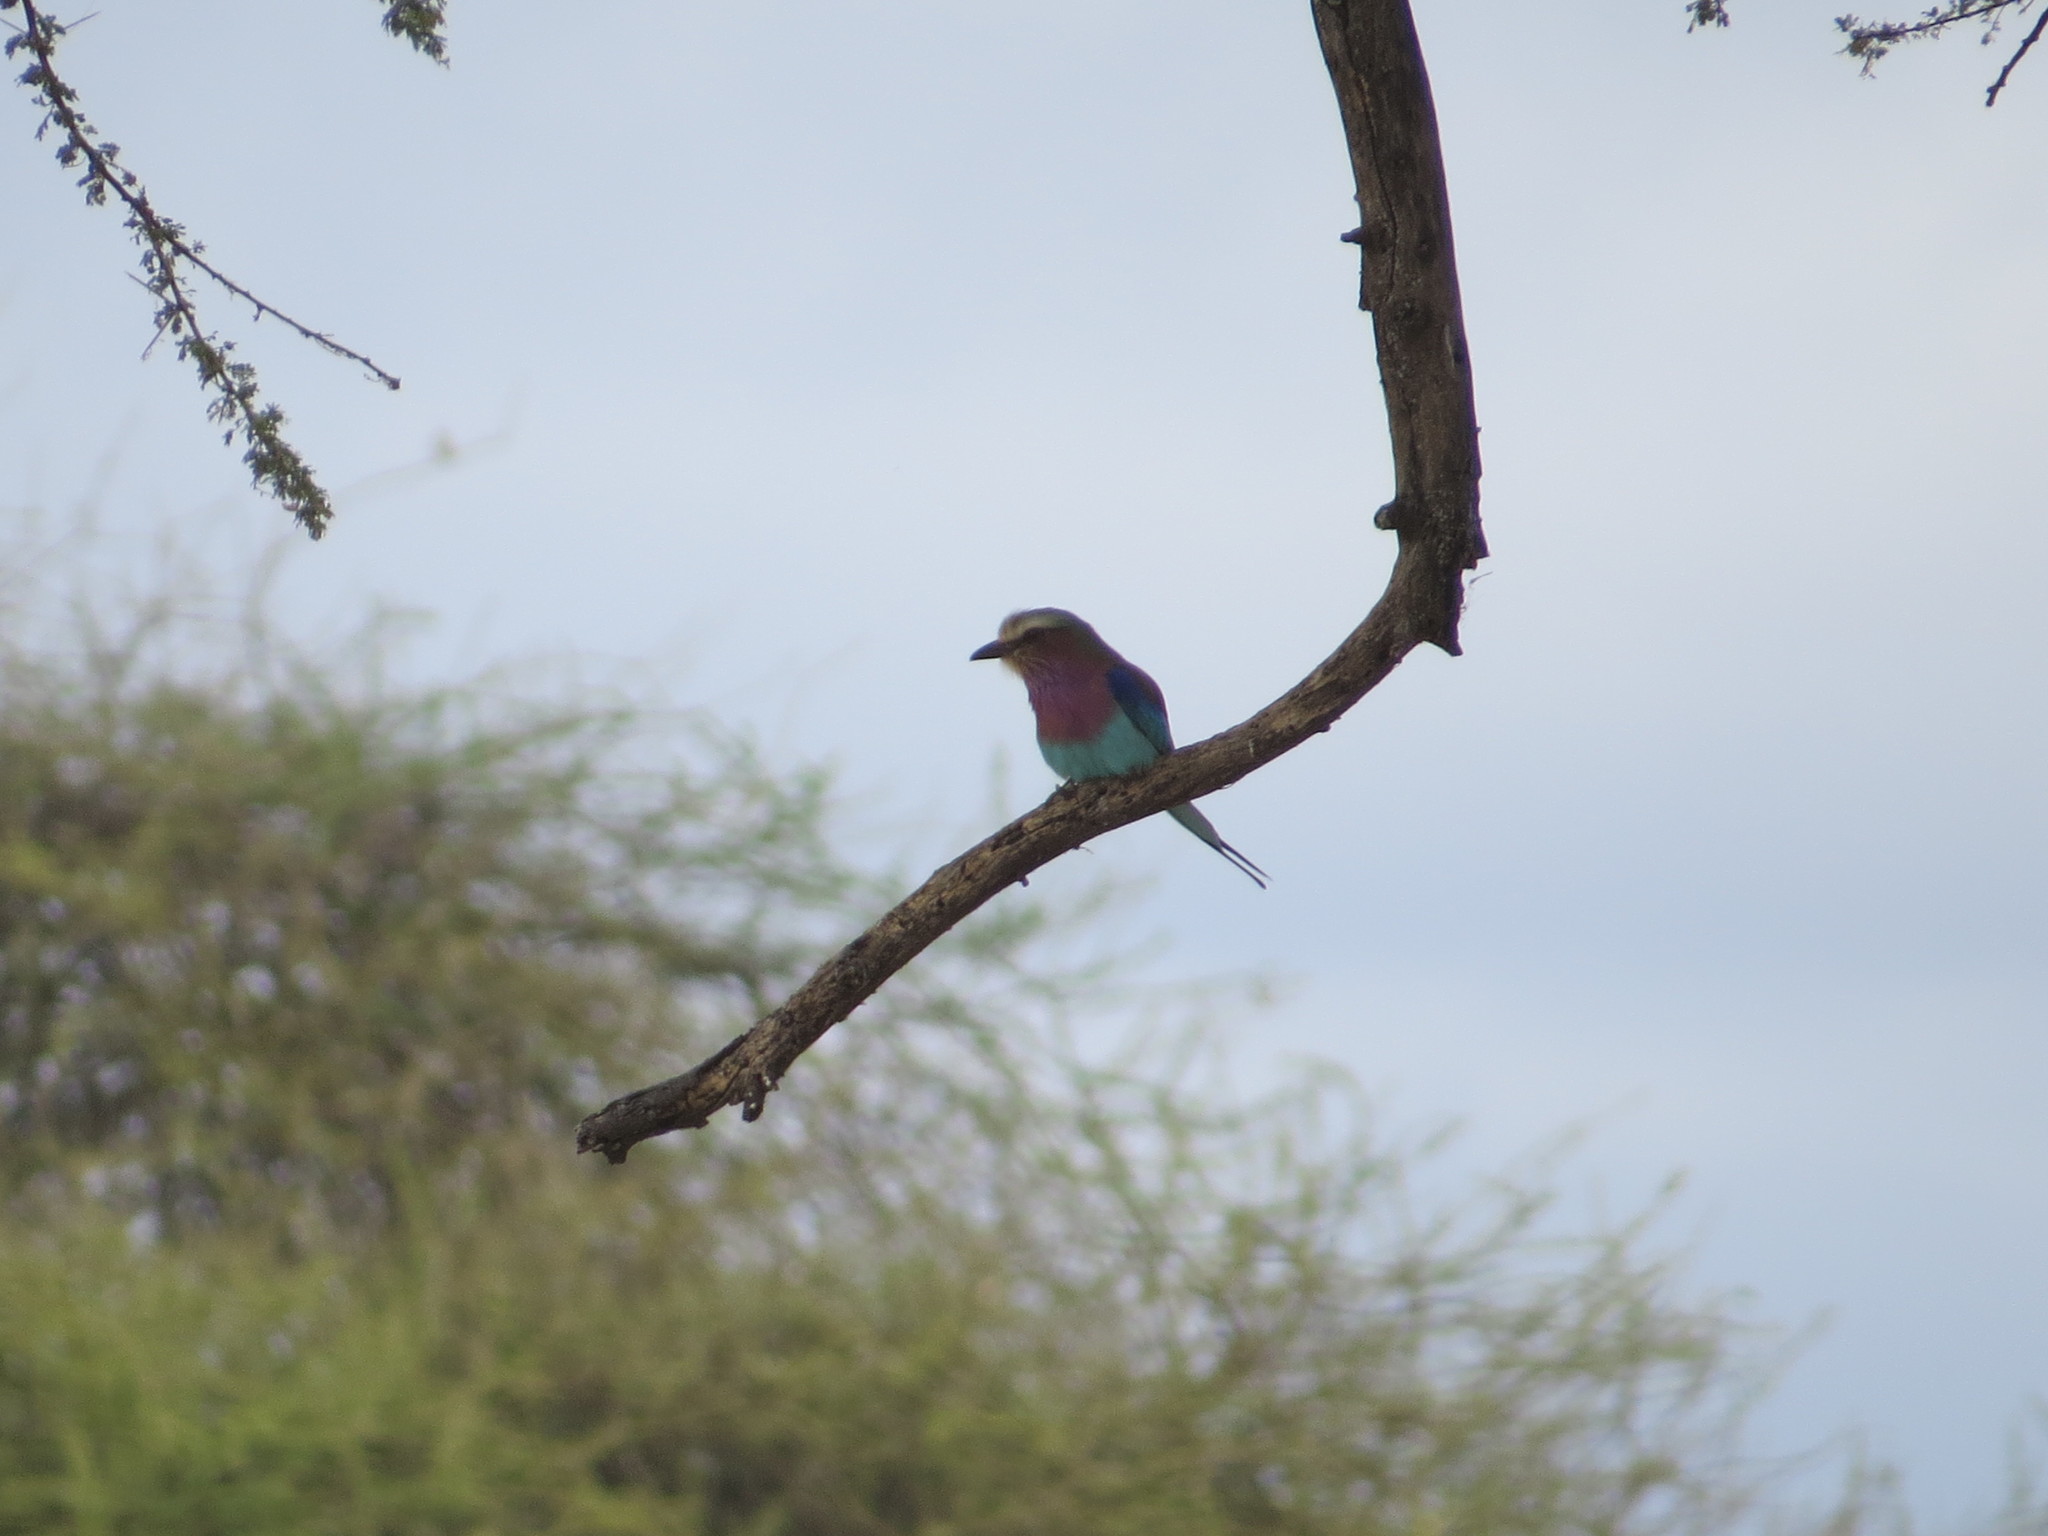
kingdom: Animalia
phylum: Chordata
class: Aves
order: Coraciiformes
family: Coraciidae
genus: Coracias
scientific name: Coracias caudatus
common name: Lilac-breasted roller
